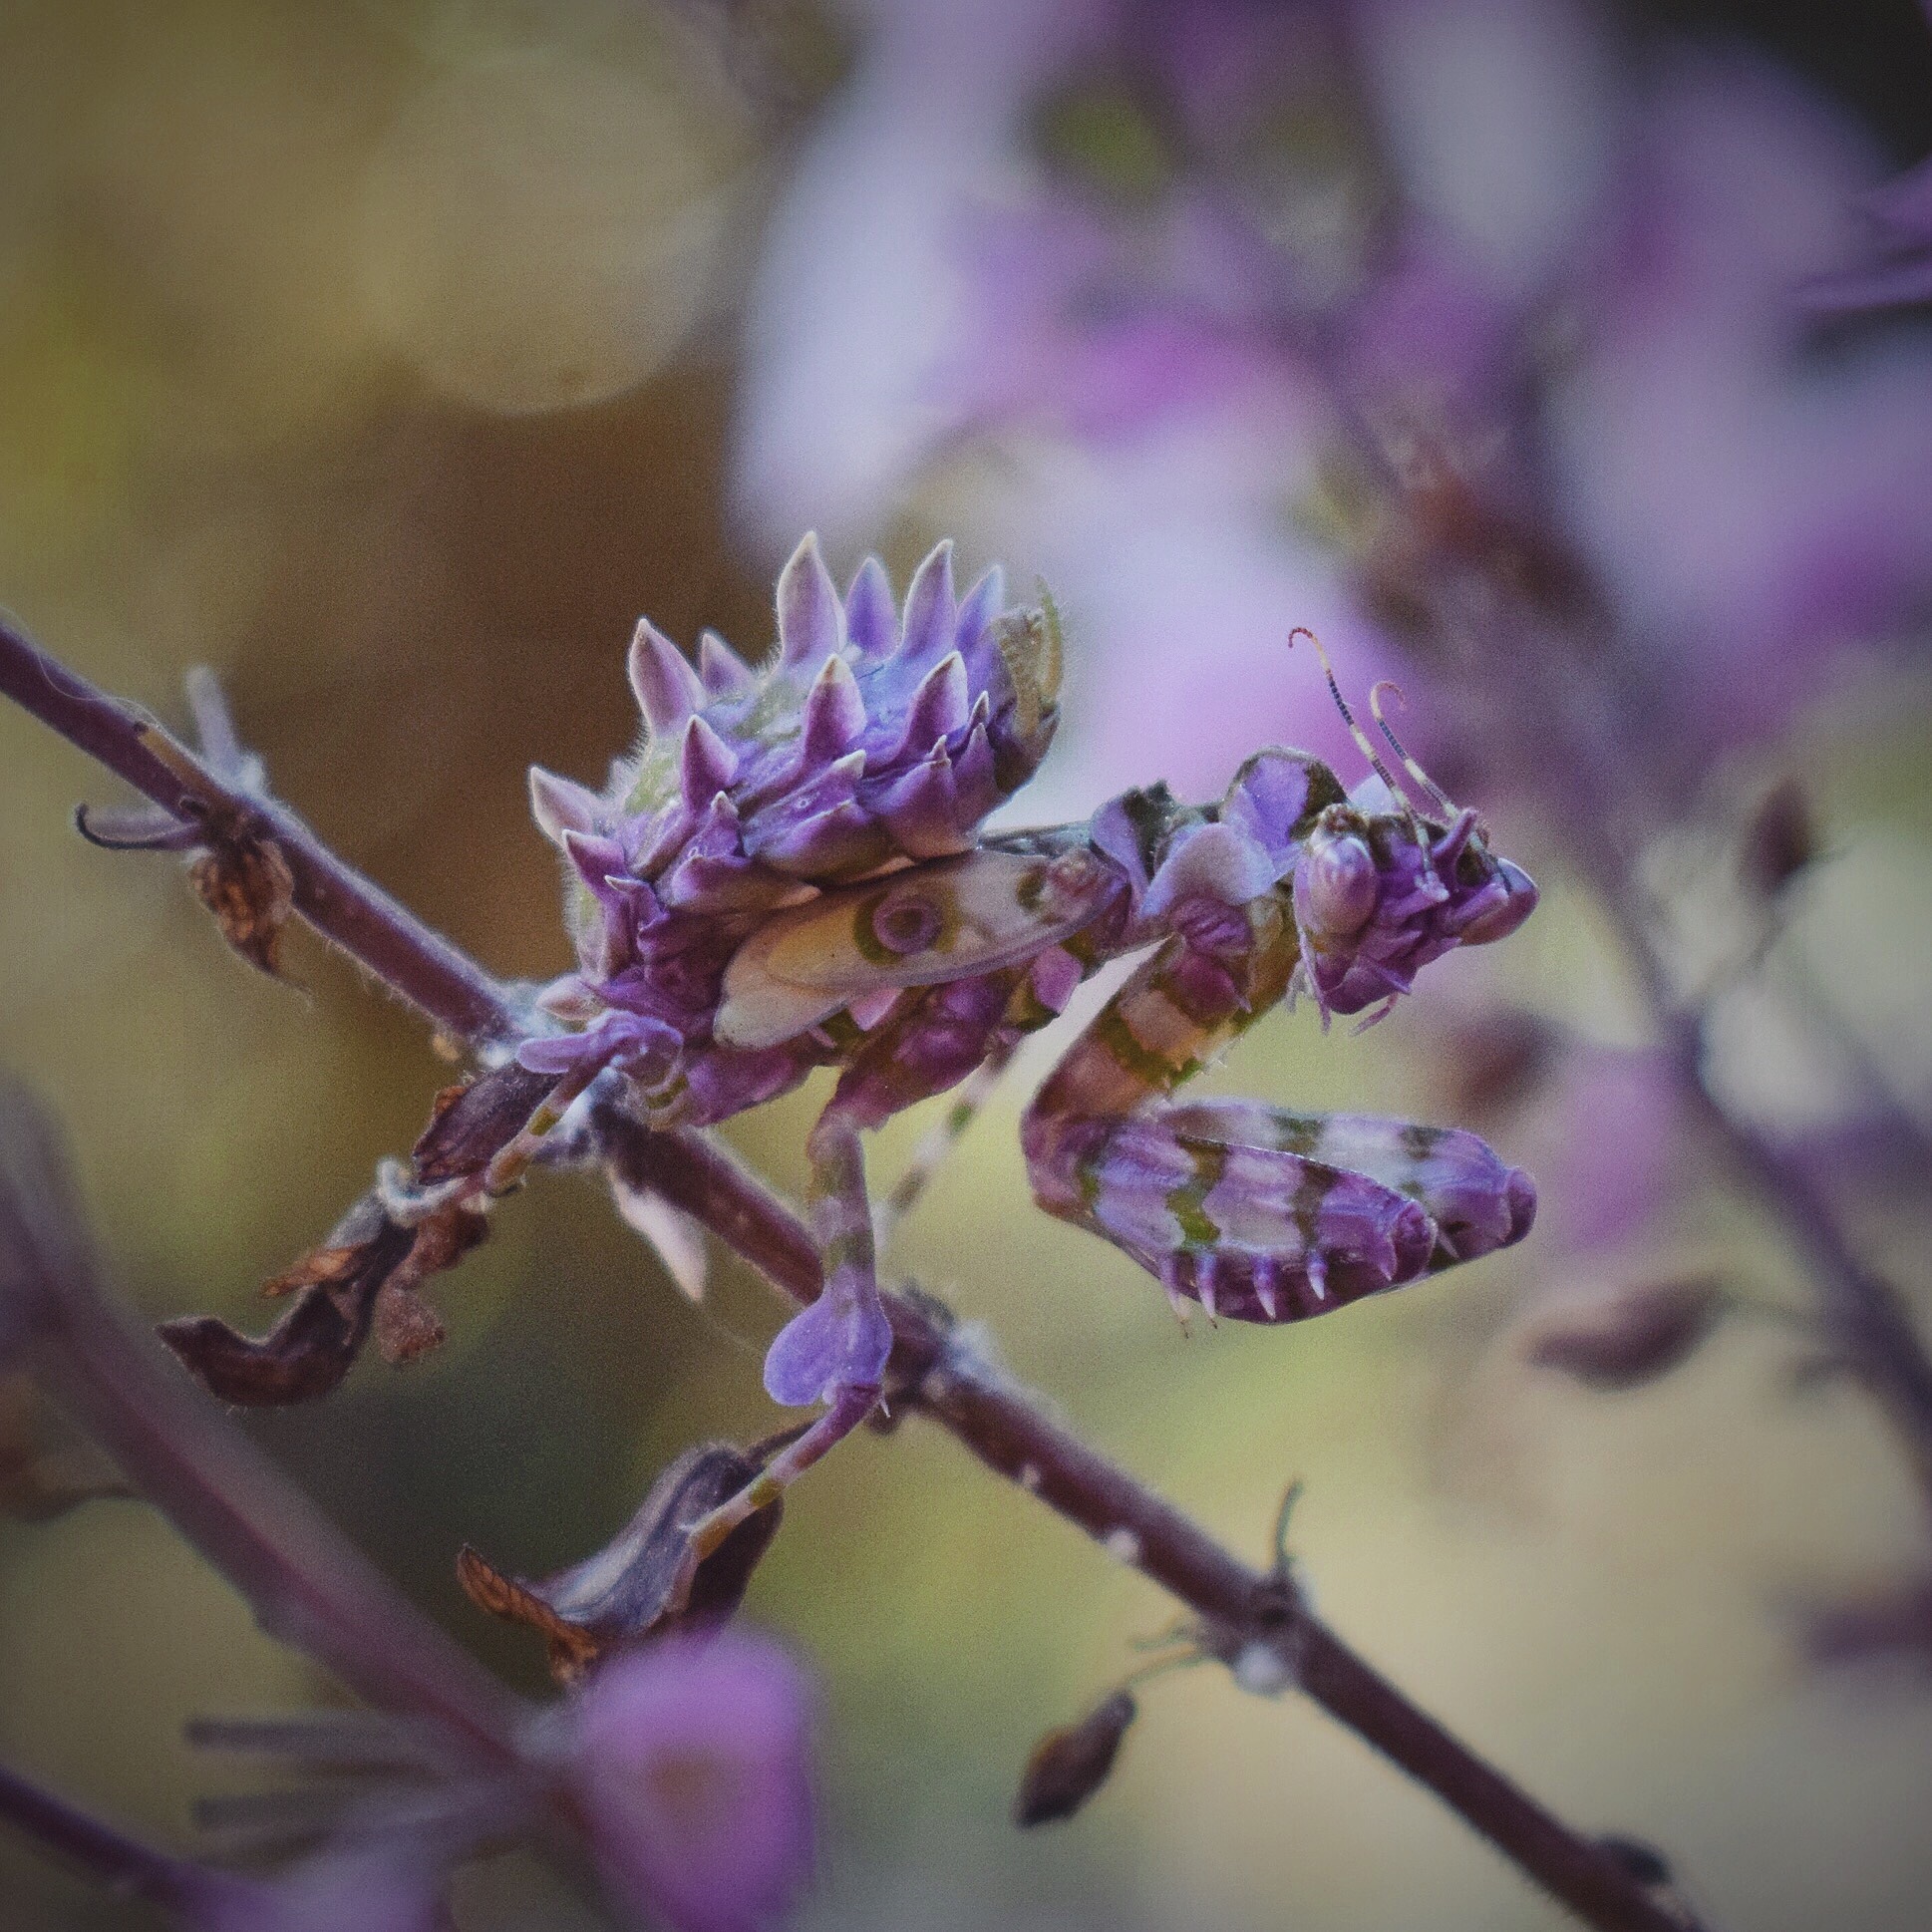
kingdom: Animalia
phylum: Arthropoda
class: Insecta
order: Mantodea
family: Hymenopodidae
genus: Pseudocreobotra
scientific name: Pseudocreobotra wahlbergi
